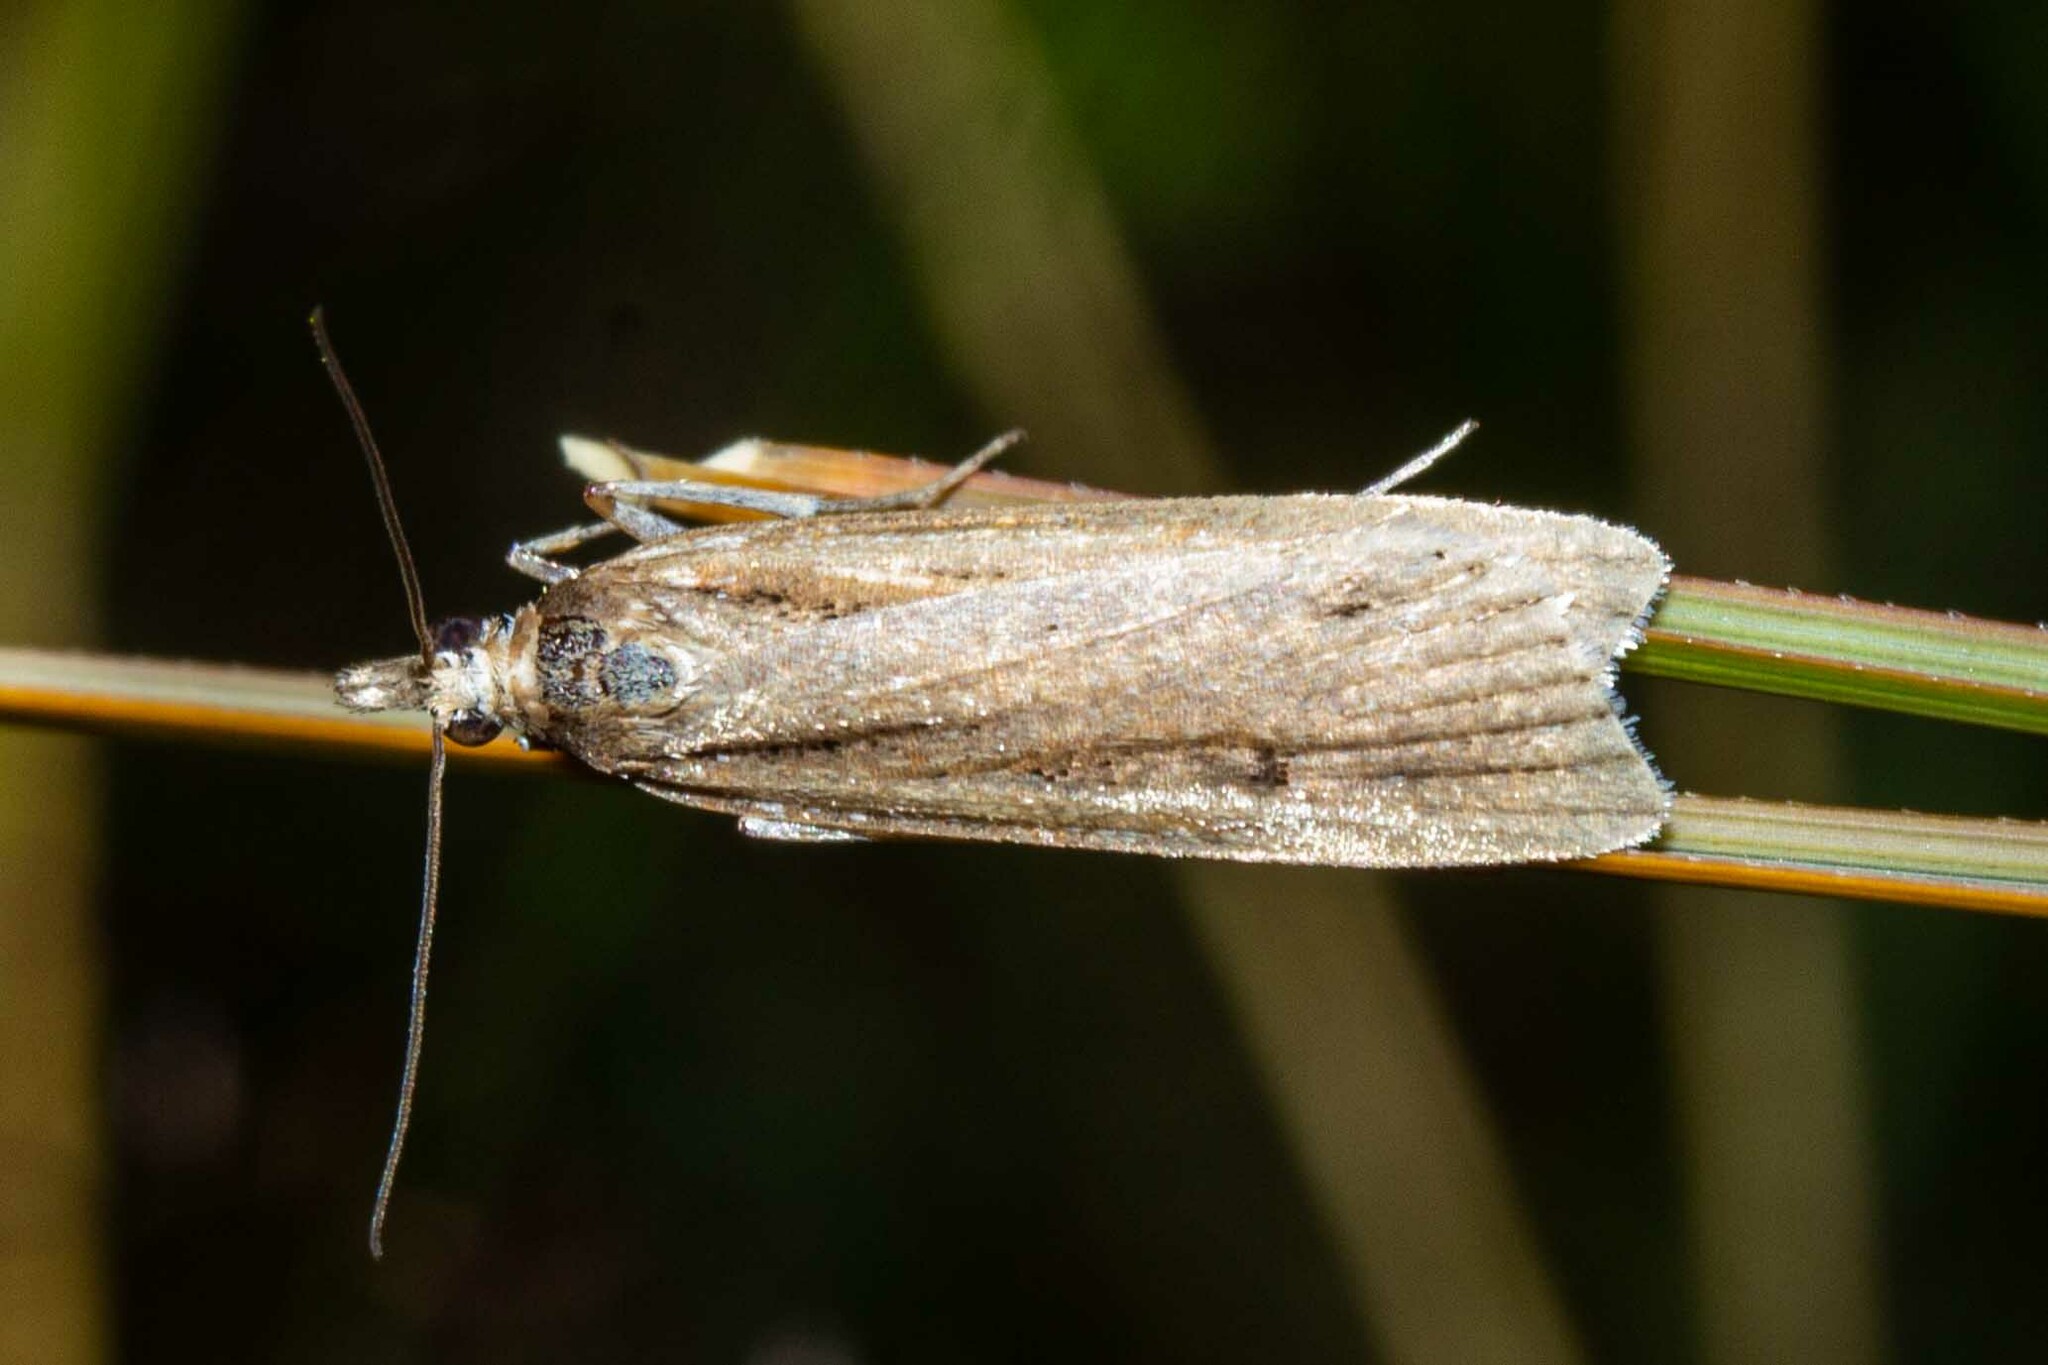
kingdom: Animalia
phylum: Arthropoda
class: Insecta
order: Lepidoptera
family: Crambidae
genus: Eudonia
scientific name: Eudonia sabulosella
